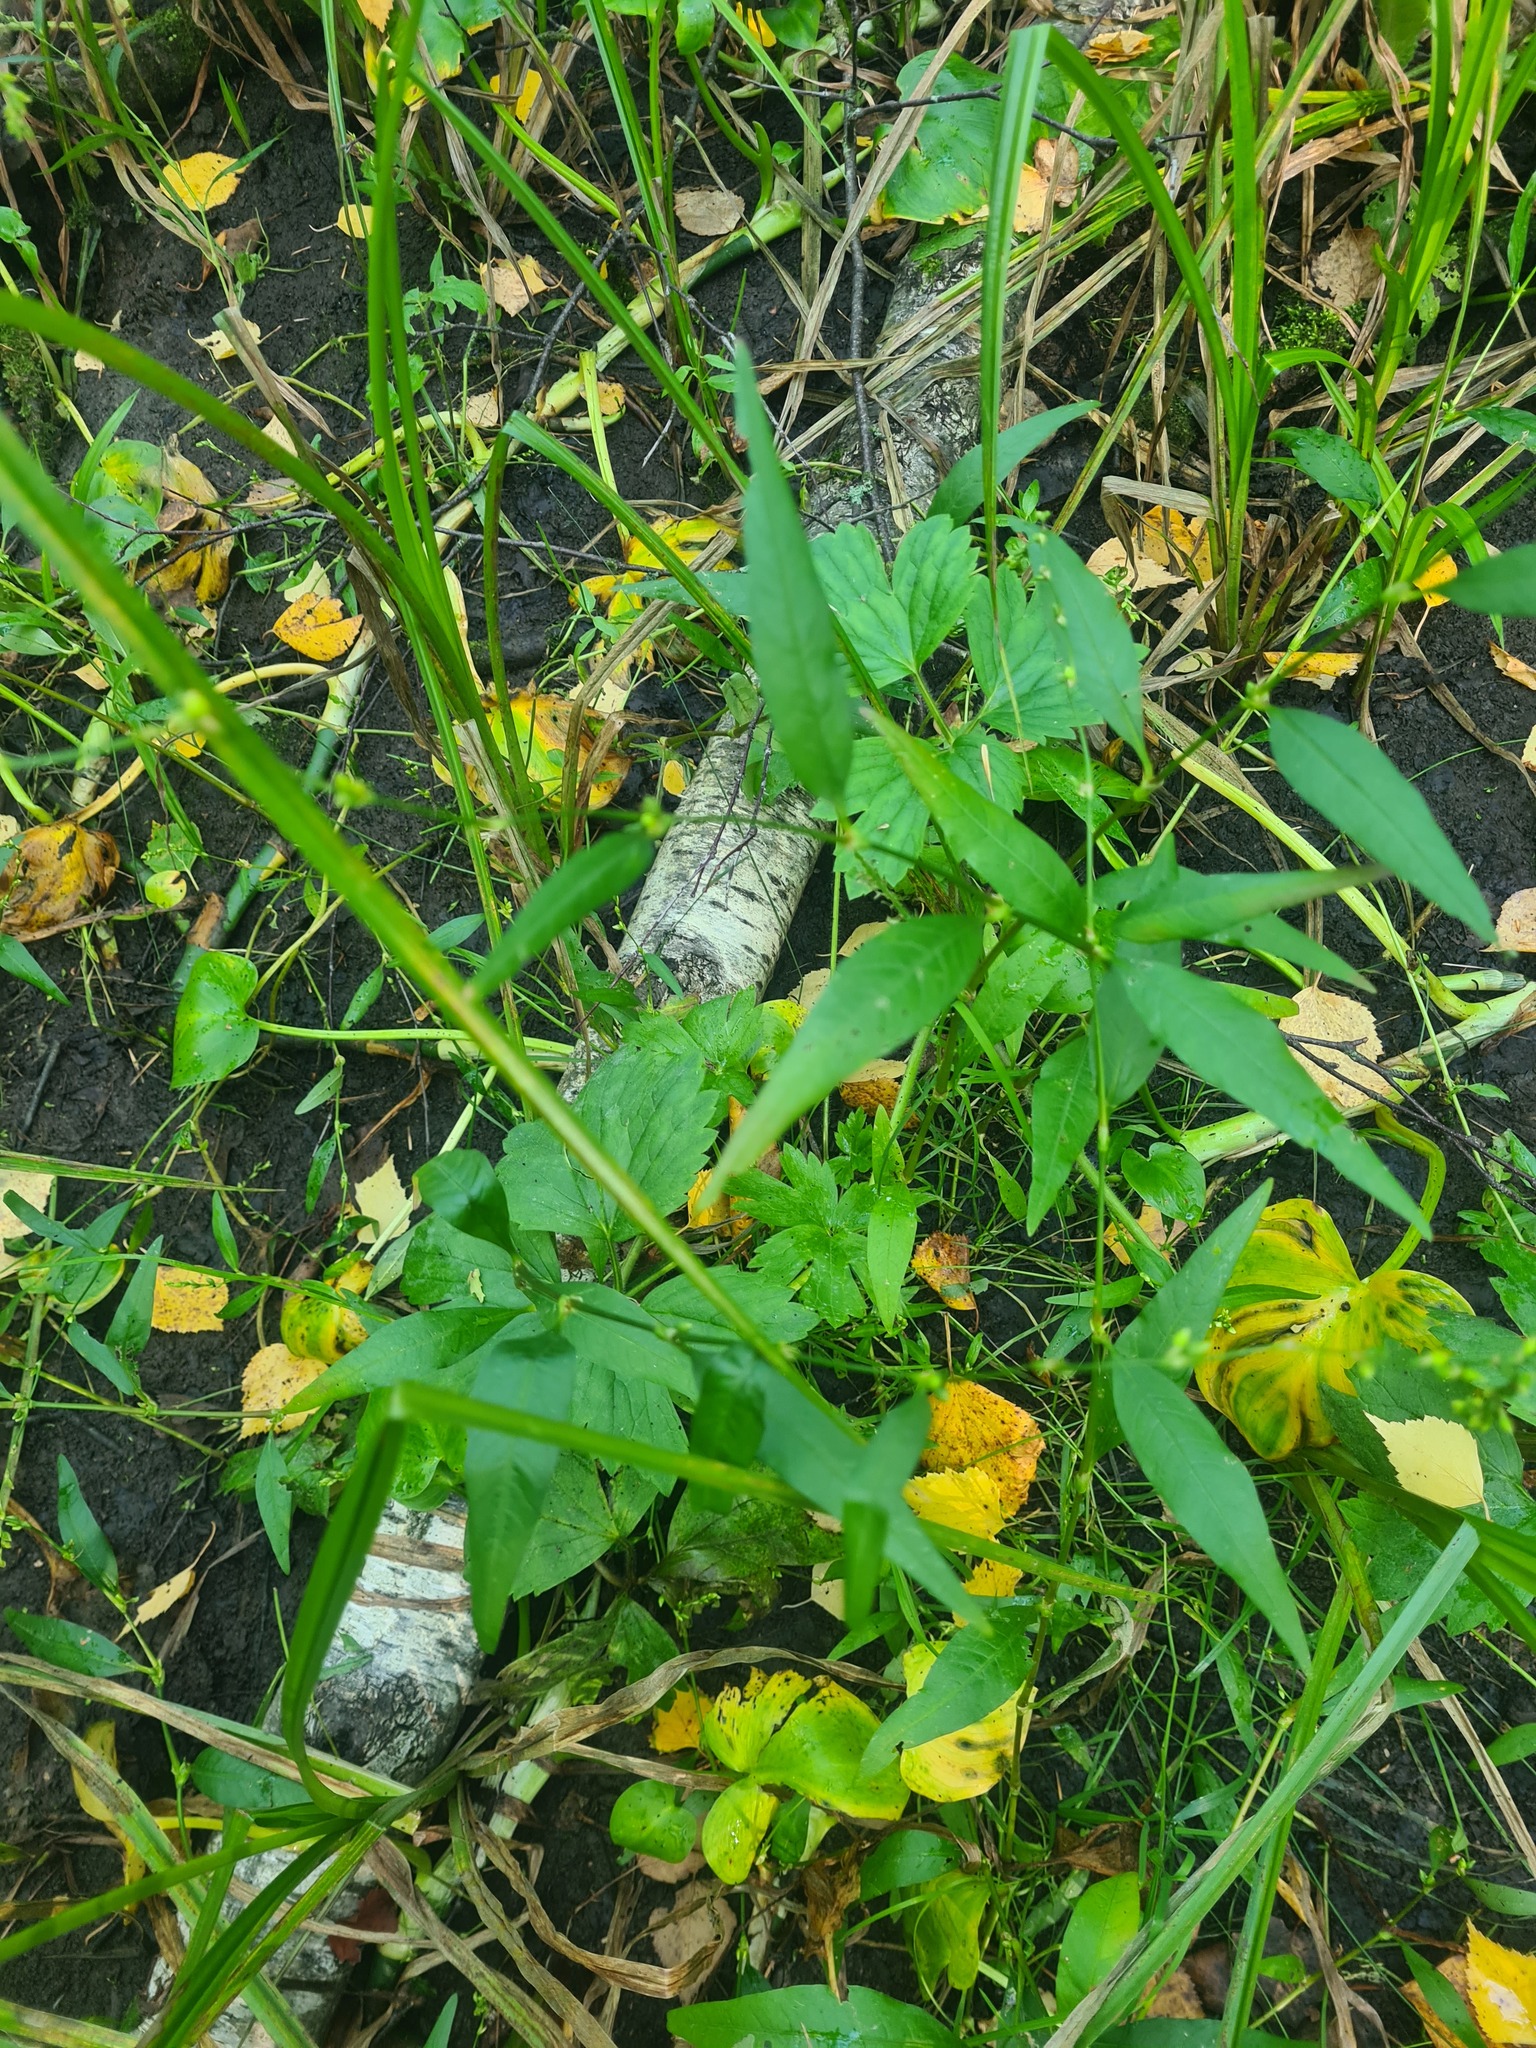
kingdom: Plantae
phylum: Tracheophyta
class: Magnoliopsida
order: Caryophyllales
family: Polygonaceae
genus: Persicaria
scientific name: Persicaria hydropiper
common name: Water-pepper
